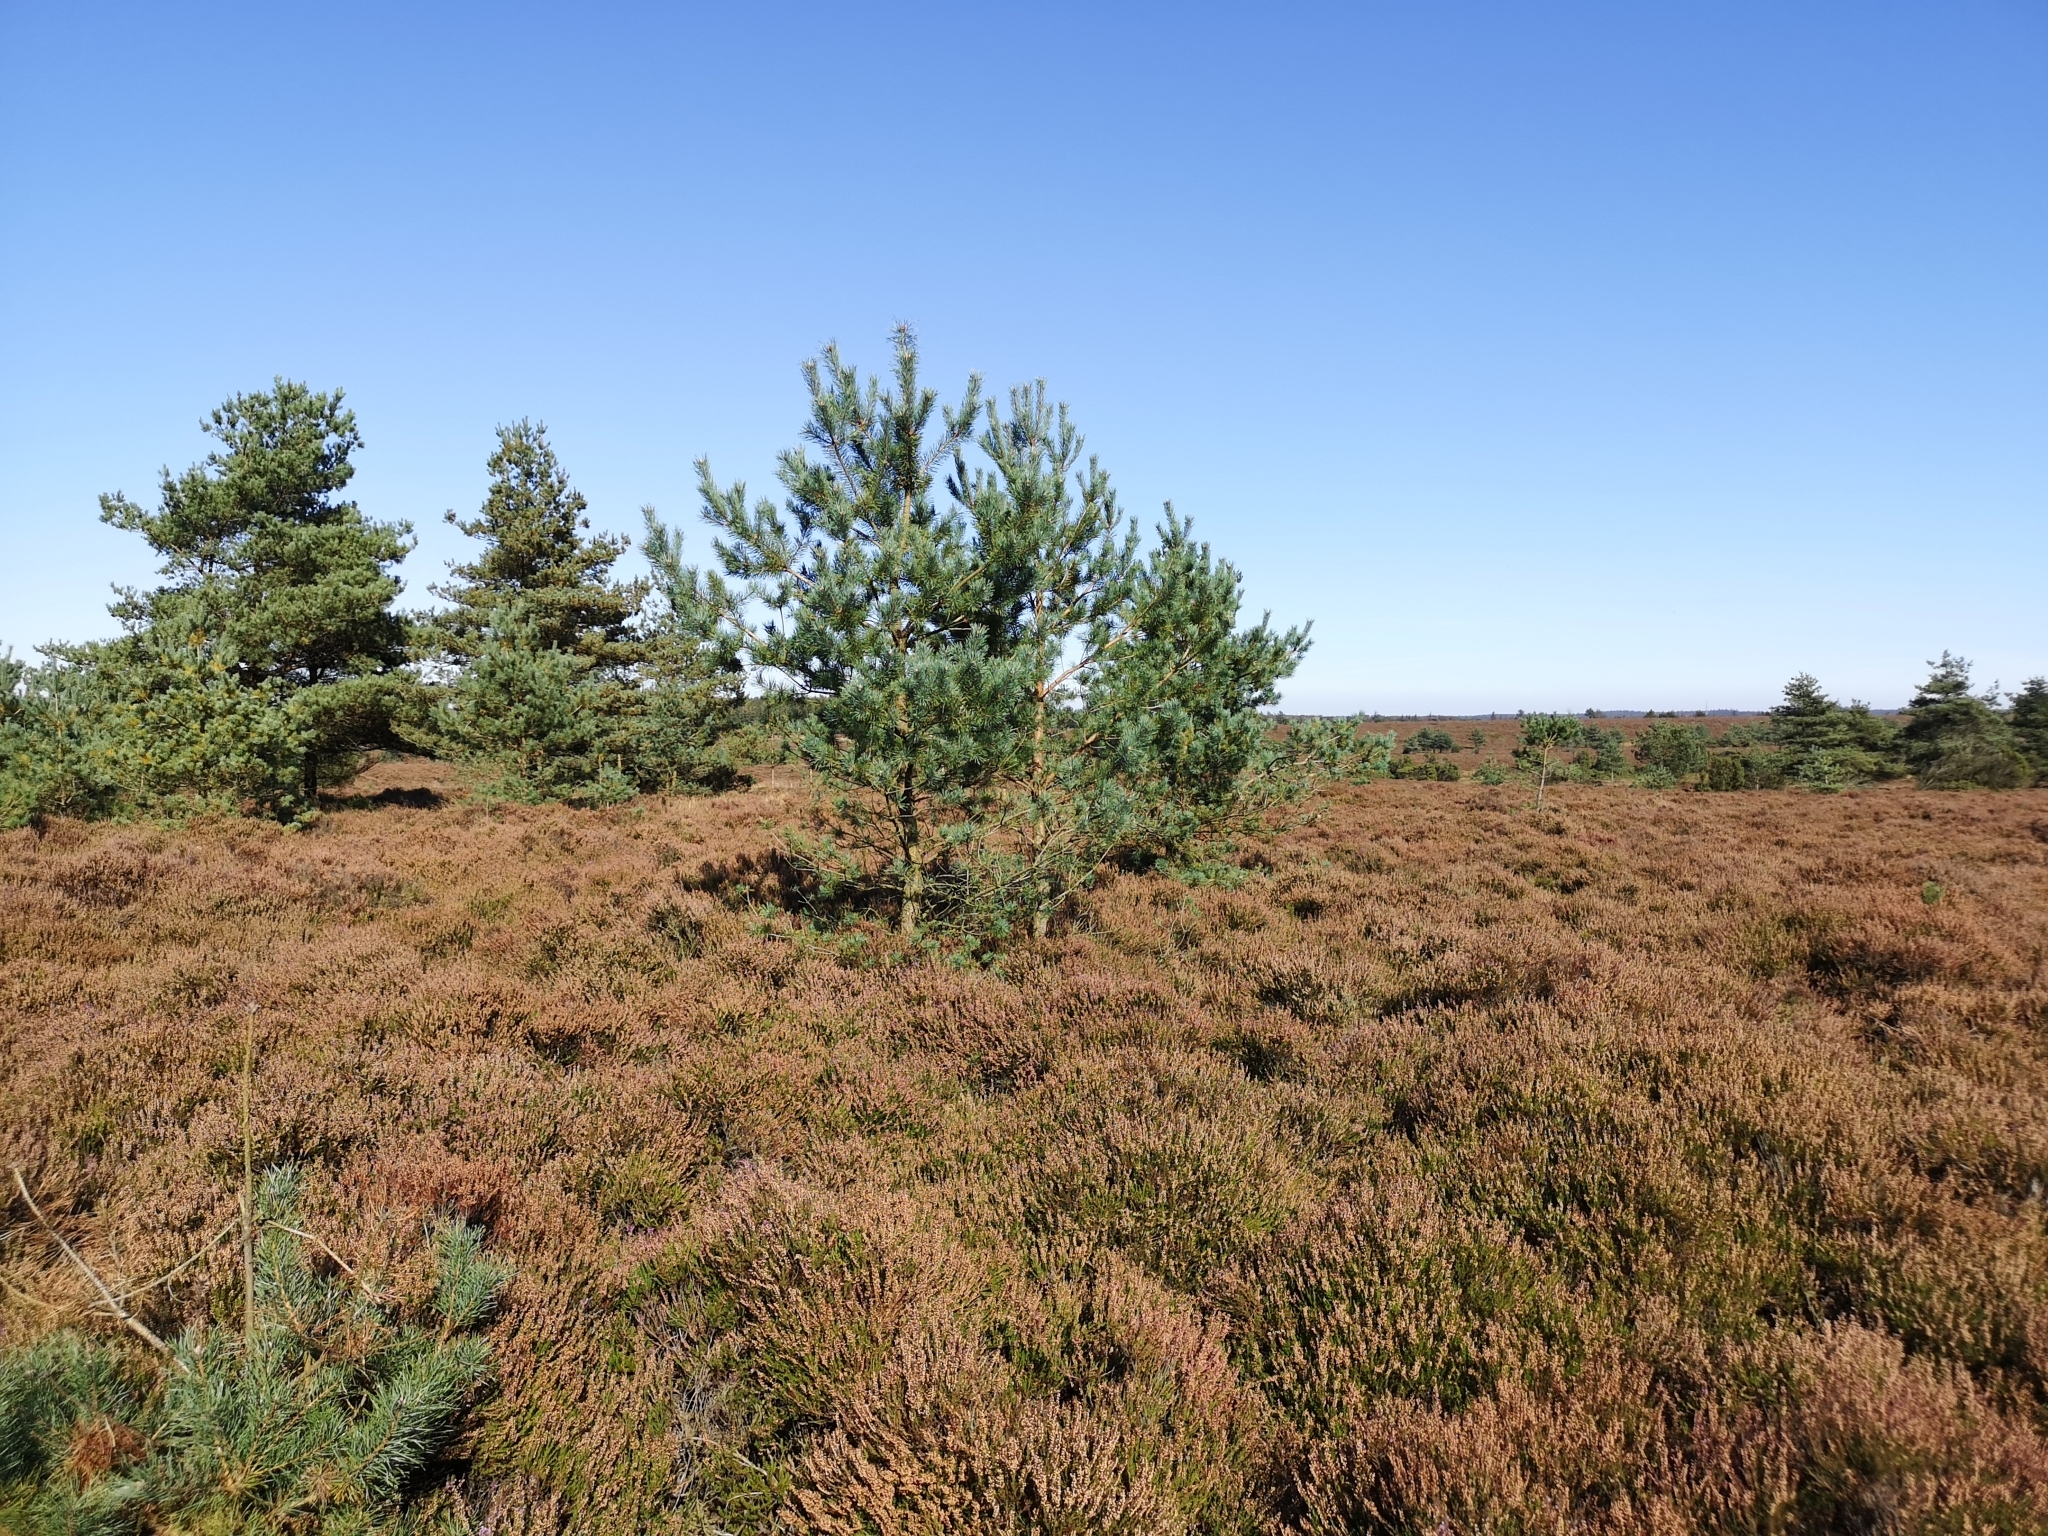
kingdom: Plantae
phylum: Tracheophyta
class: Pinopsida
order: Pinales
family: Pinaceae
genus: Pinus
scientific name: Pinus sylvestris
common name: Scots pine
